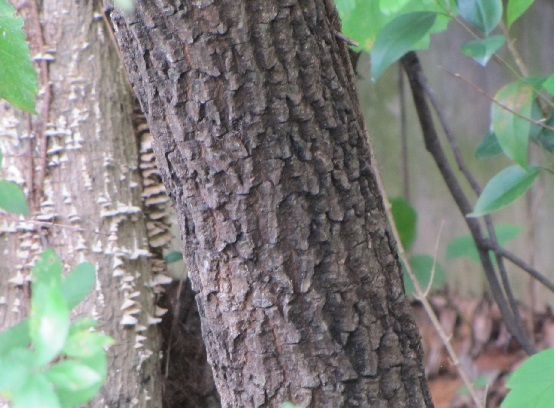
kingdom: Plantae
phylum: Tracheophyta
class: Magnoliopsida
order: Ericales
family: Ebenaceae
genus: Diospyros
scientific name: Diospyros virginiana
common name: Persimmon
